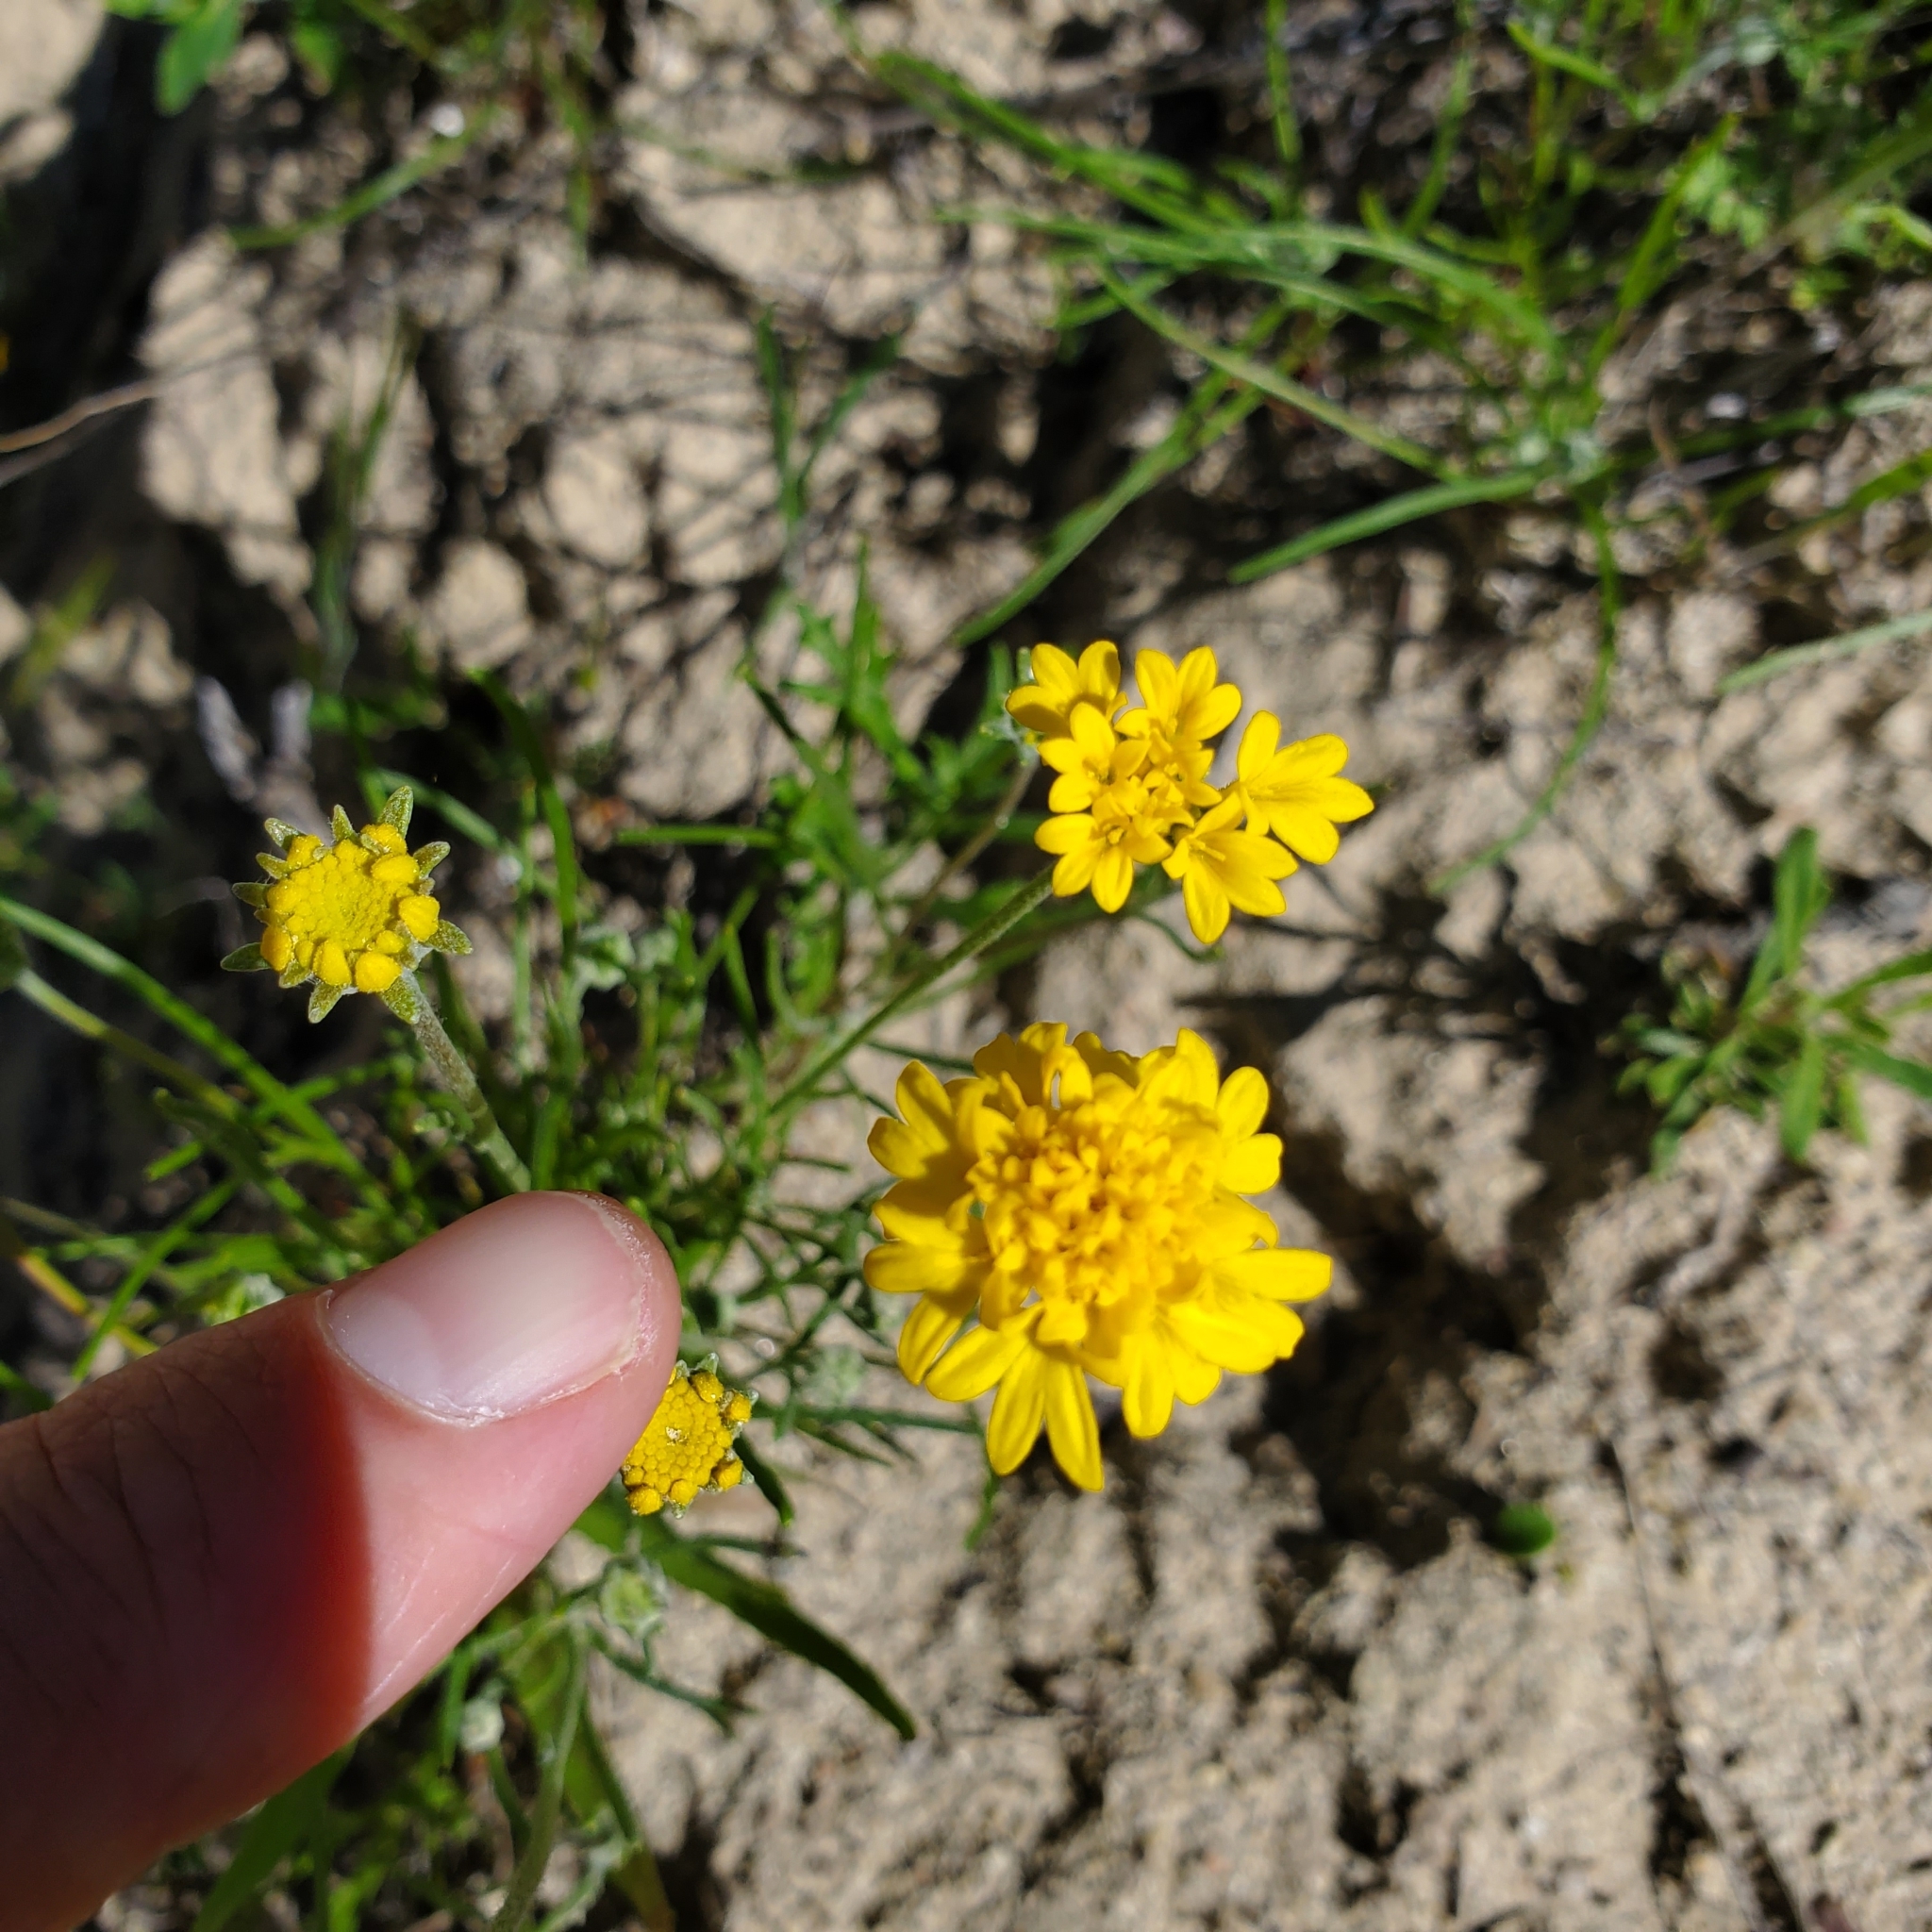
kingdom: Plantae
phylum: Tracheophyta
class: Magnoliopsida
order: Asterales
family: Asteraceae
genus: Chaenactis
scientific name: Chaenactis glabriuscula
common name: Yellow pincushion
